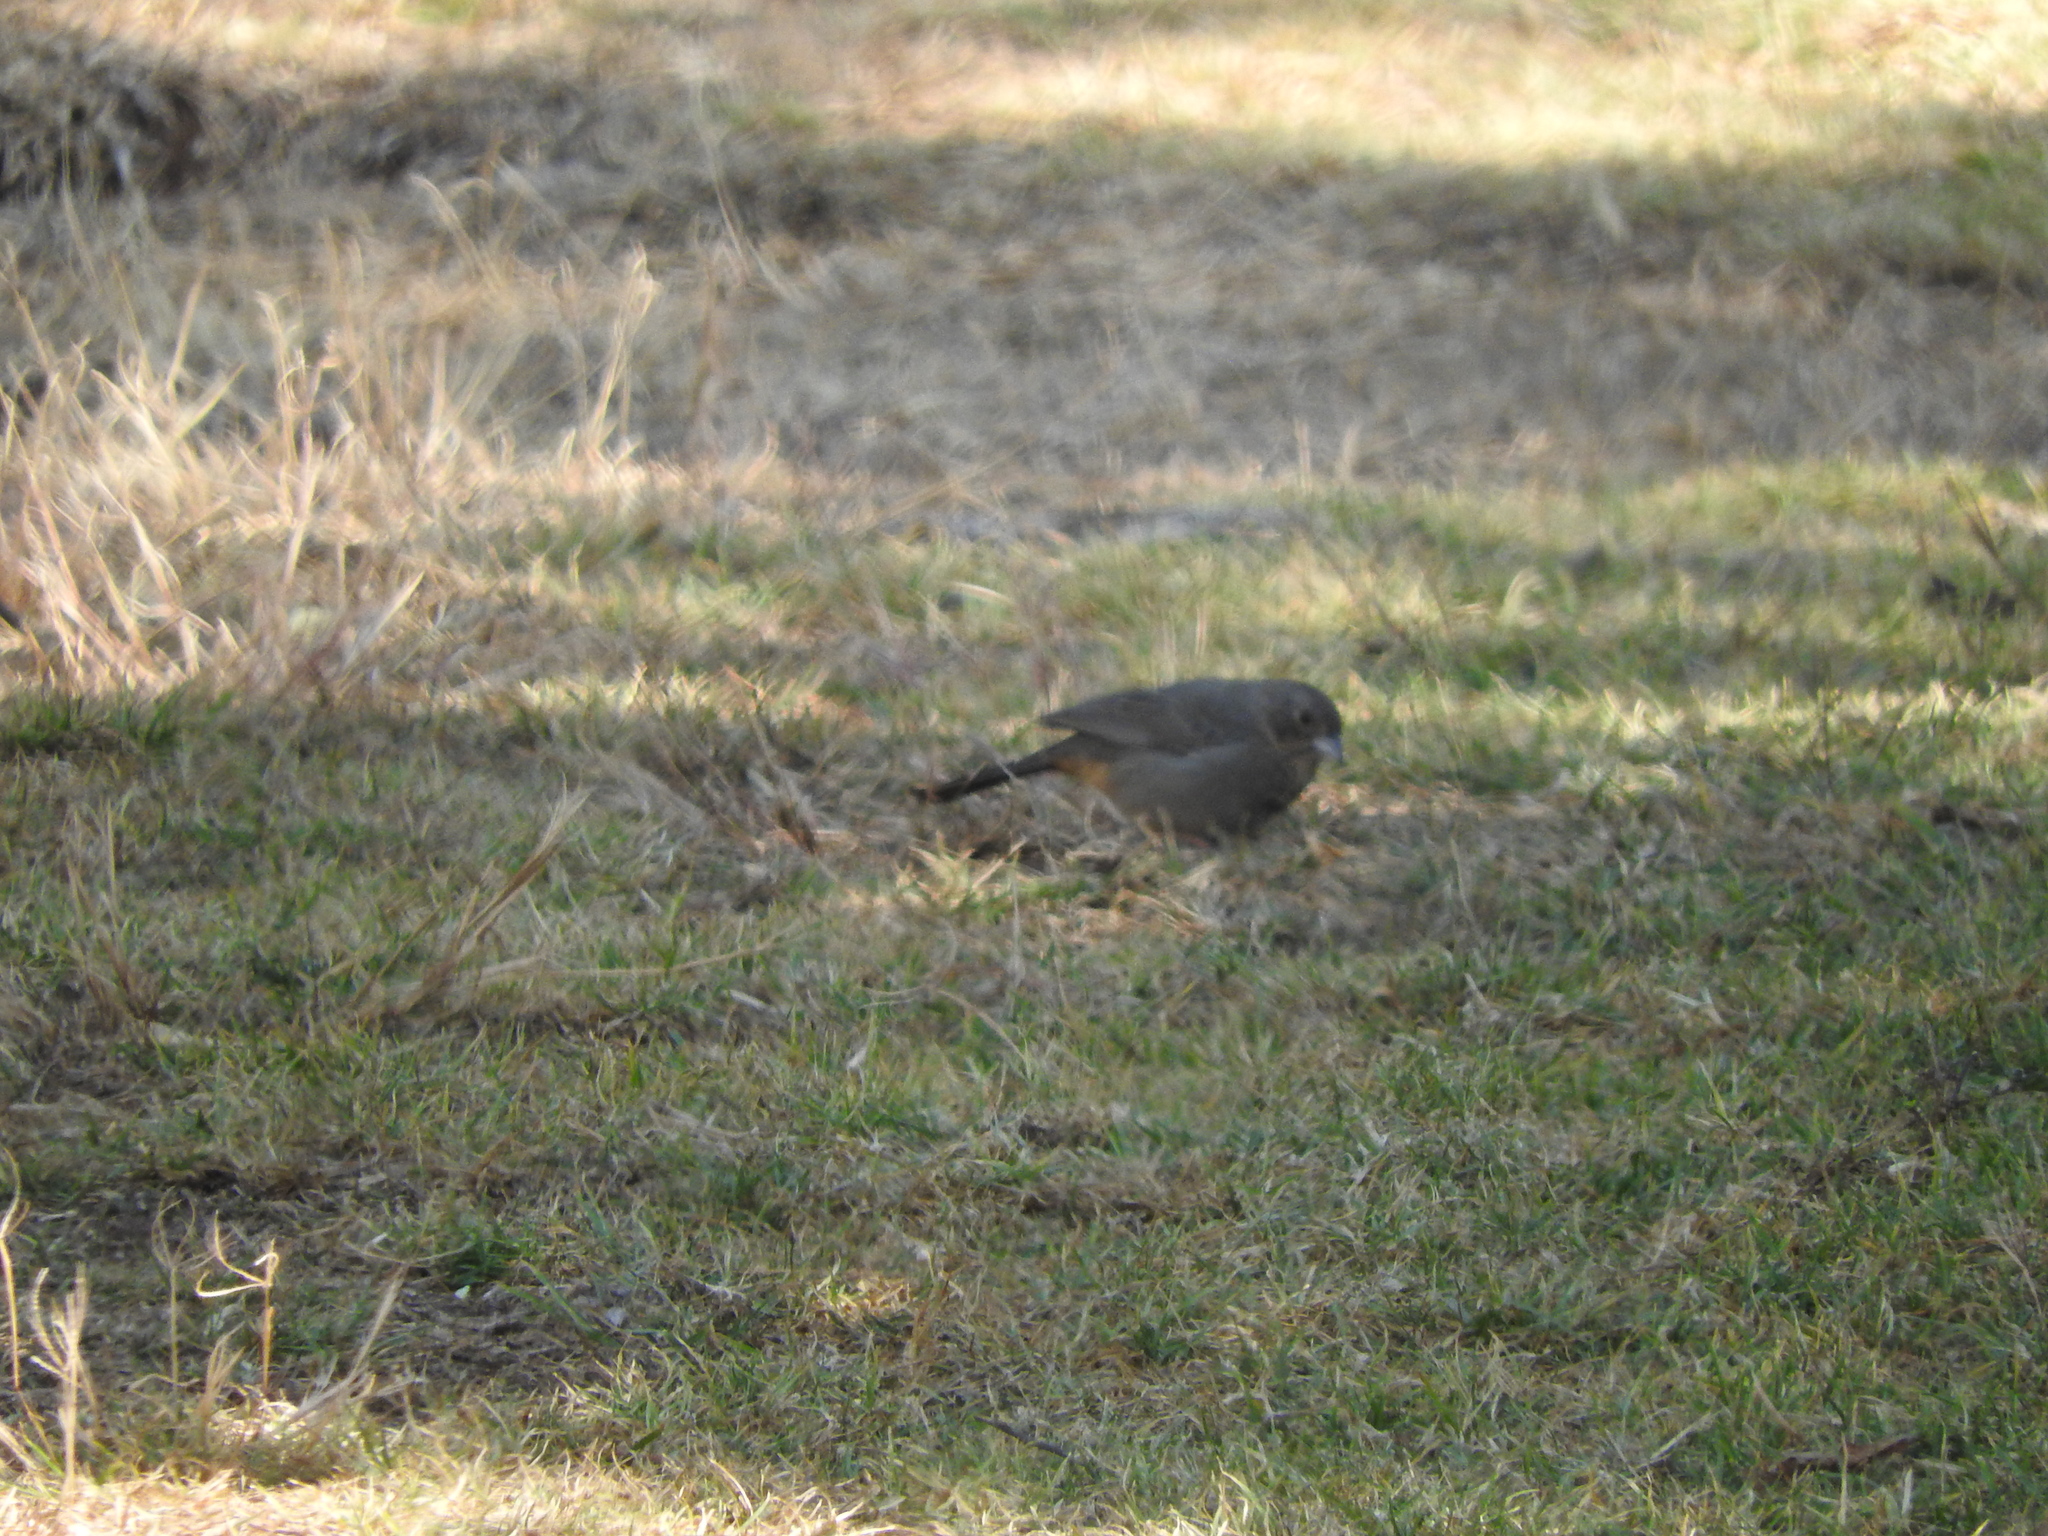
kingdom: Animalia
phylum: Chordata
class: Aves
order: Passeriformes
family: Passerellidae
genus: Melozone
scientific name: Melozone fusca
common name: Canyon towhee
